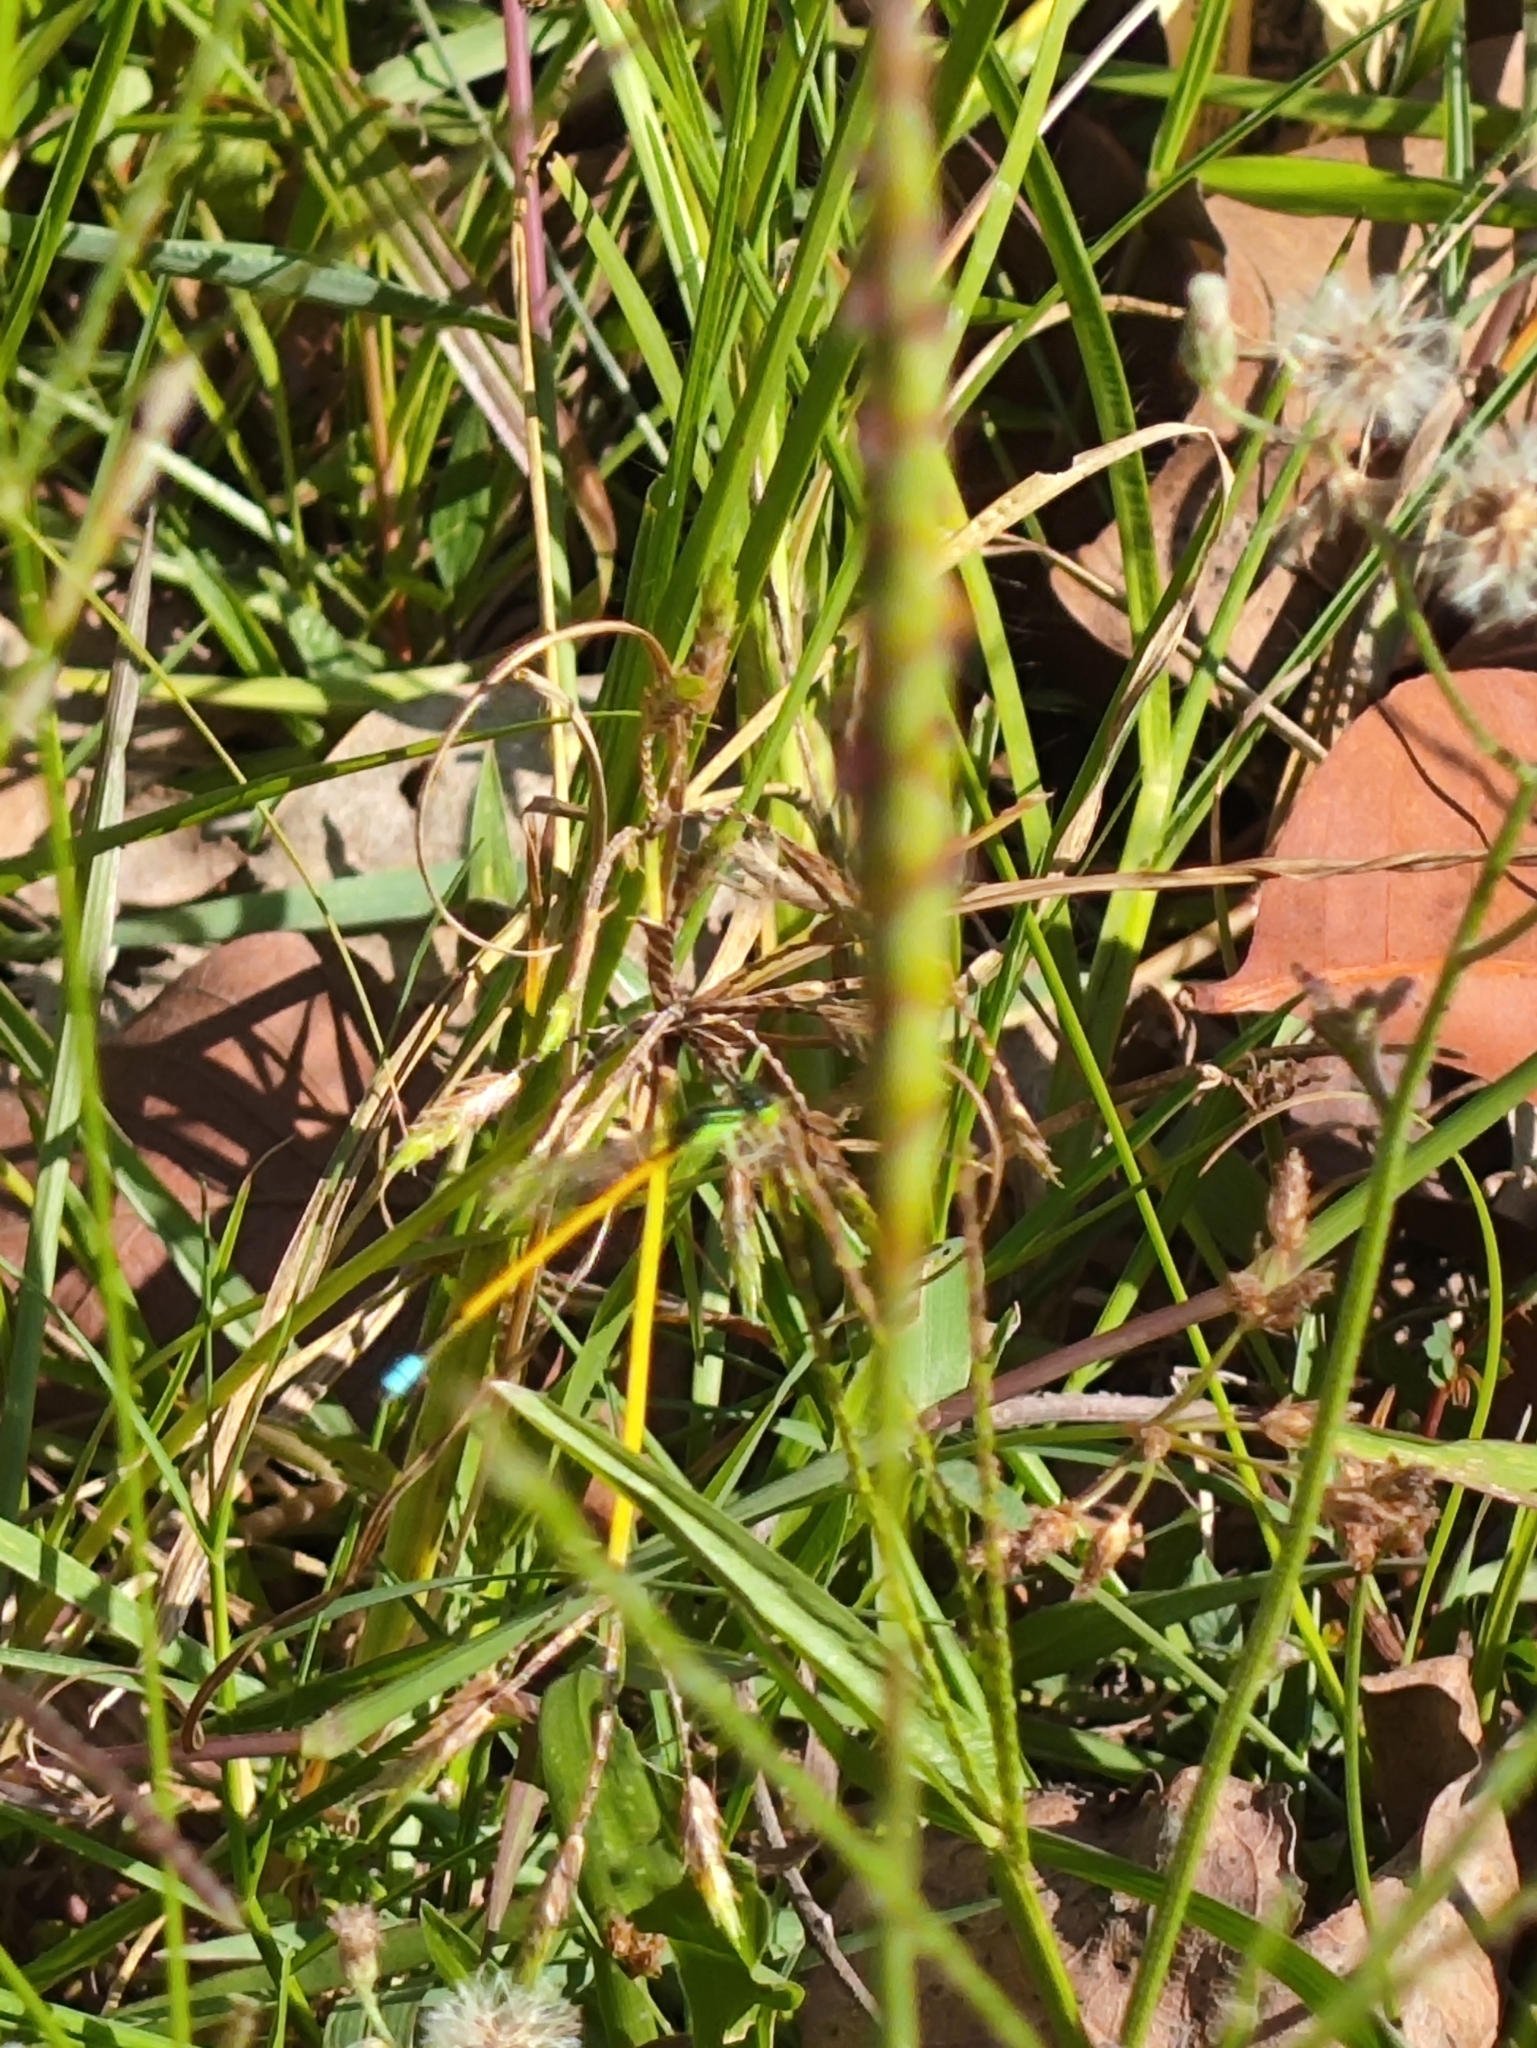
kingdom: Animalia
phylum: Arthropoda
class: Insecta
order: Odonata
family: Coenagrionidae
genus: Ischnura
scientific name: Ischnura rubilio
